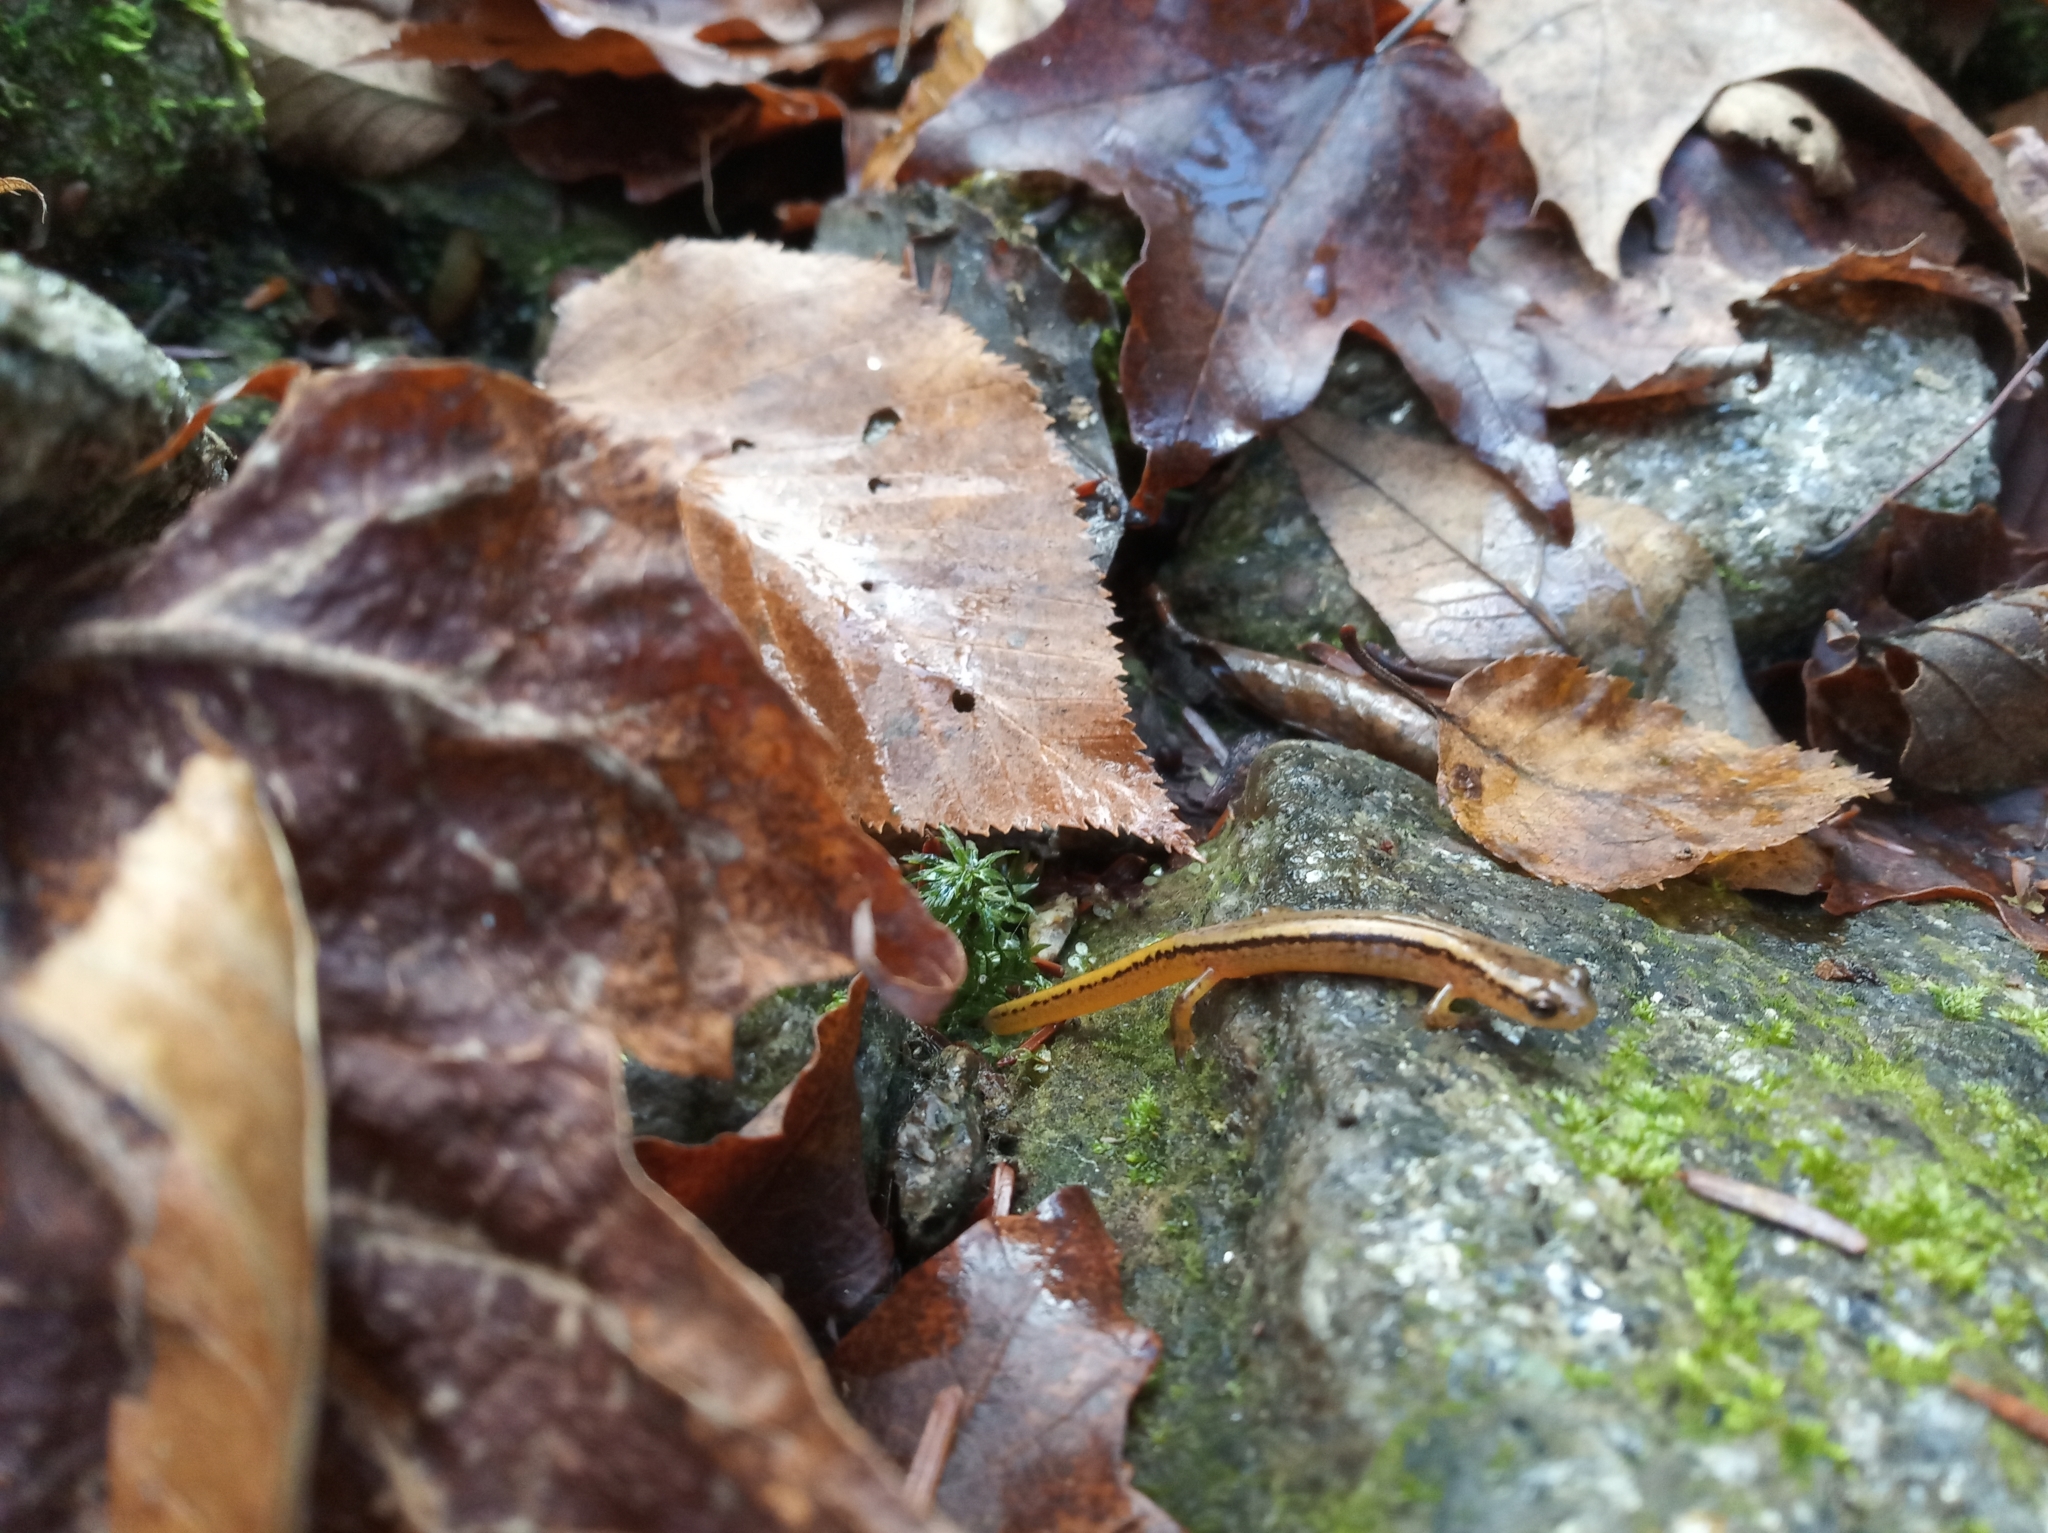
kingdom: Animalia
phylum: Chordata
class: Amphibia
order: Caudata
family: Plethodontidae
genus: Eurycea
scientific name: Eurycea bislineata
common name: Northern two-lined salamander
